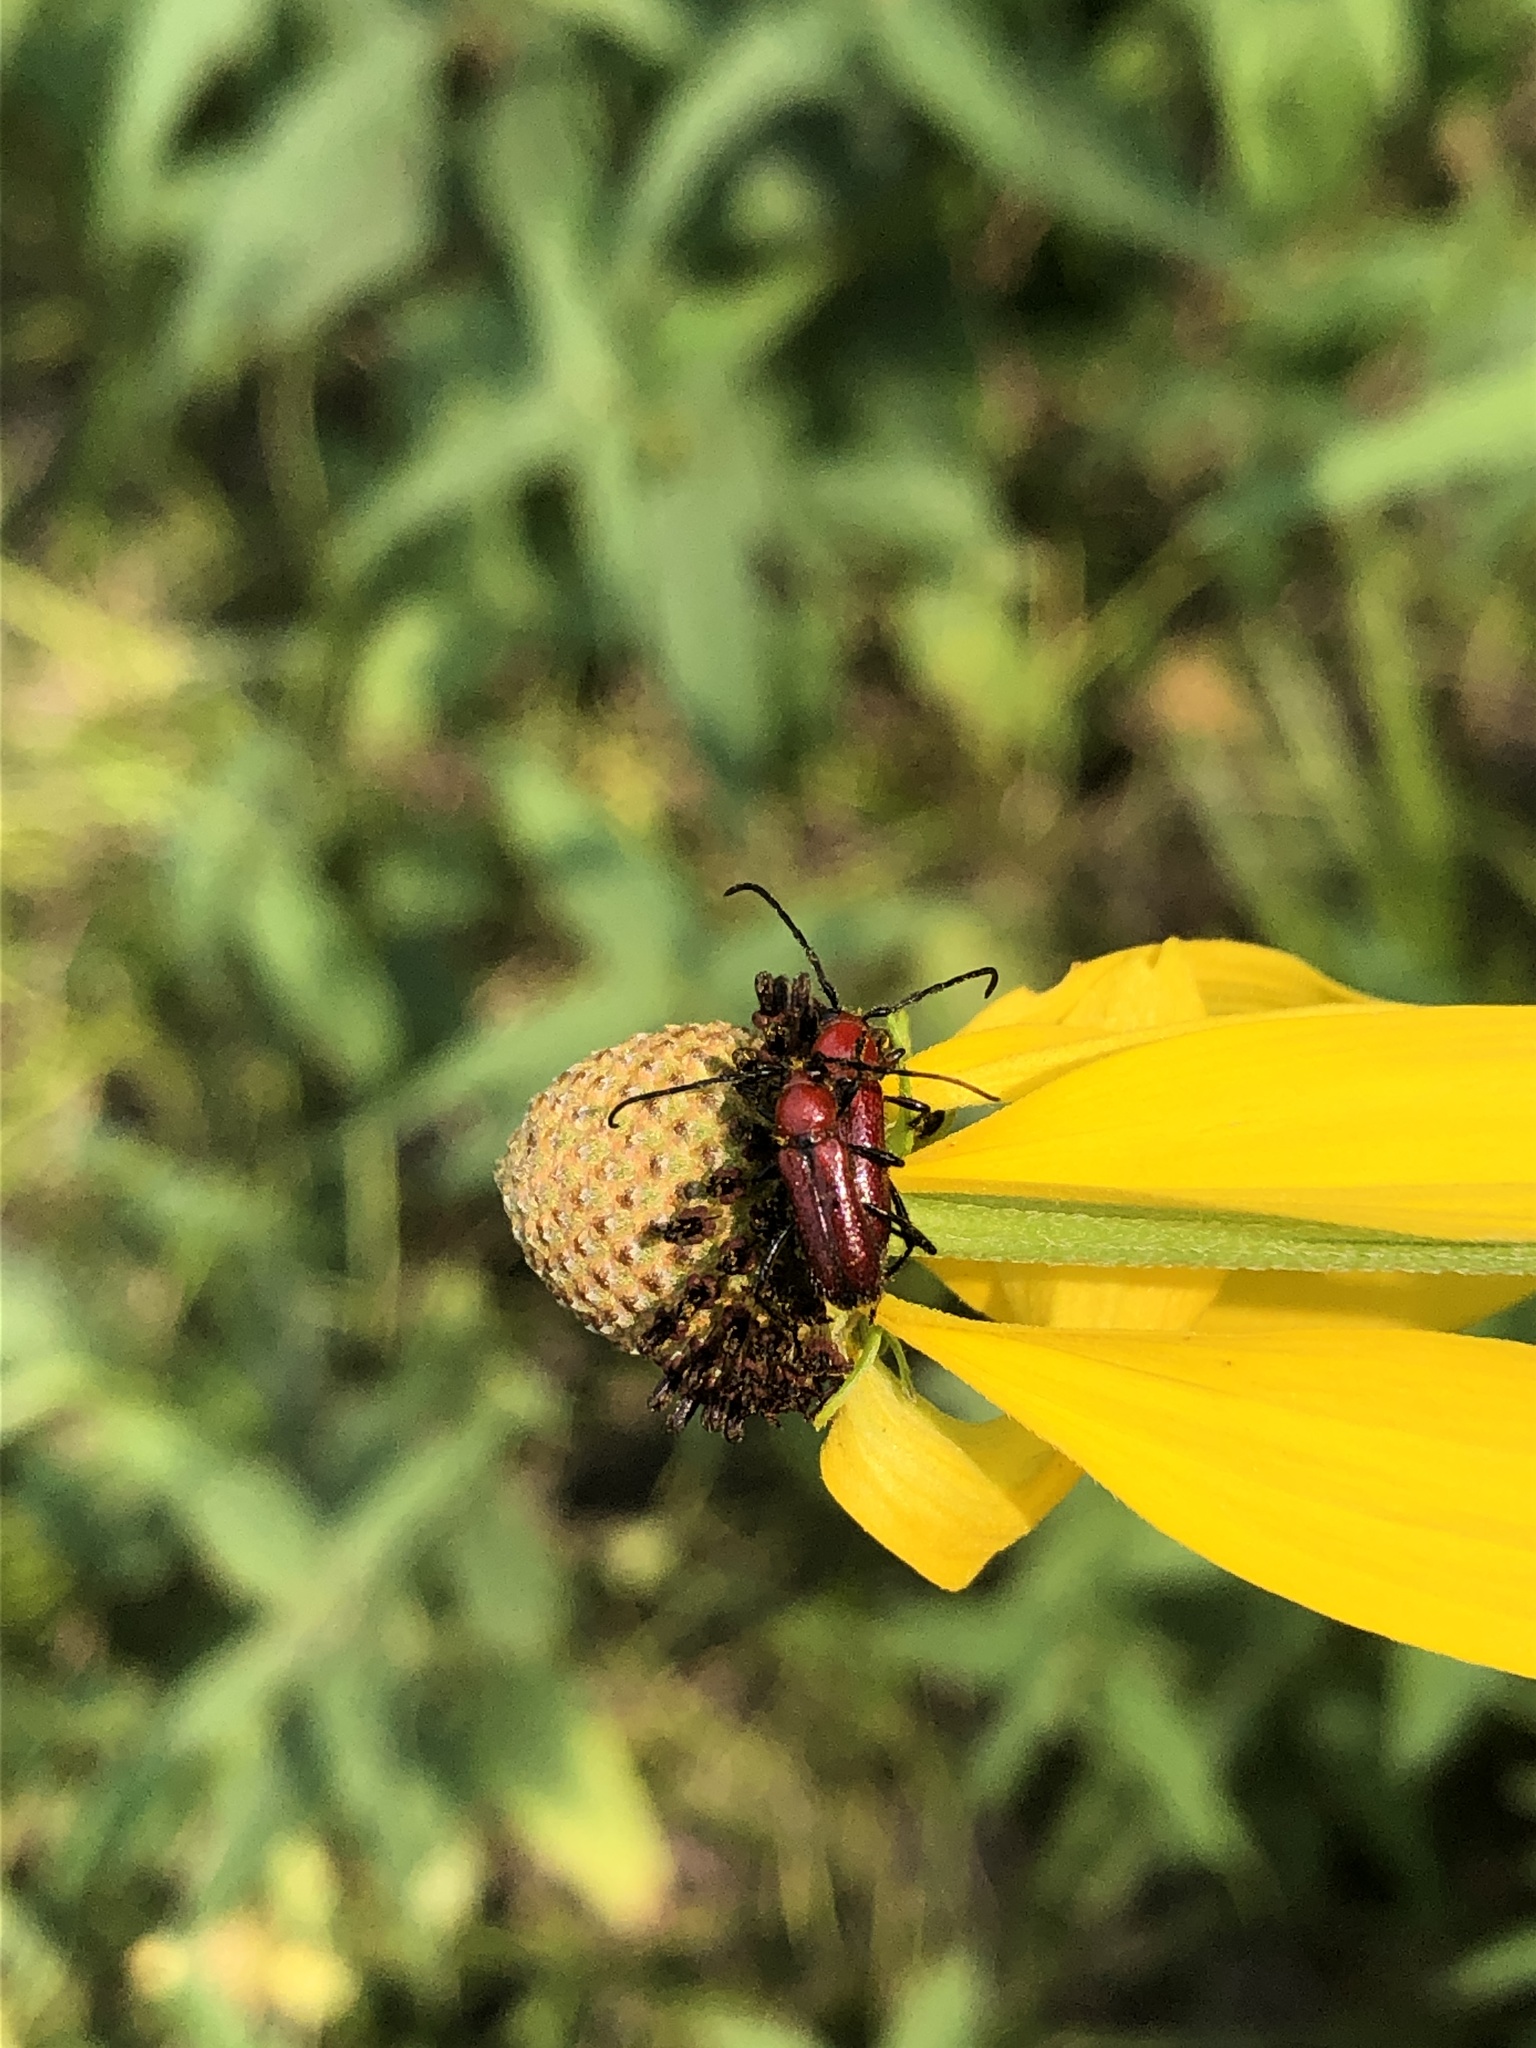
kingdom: Animalia
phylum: Arthropoda
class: Insecta
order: Coleoptera
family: Cerambycidae
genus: Batyle
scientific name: Batyle suturalis
